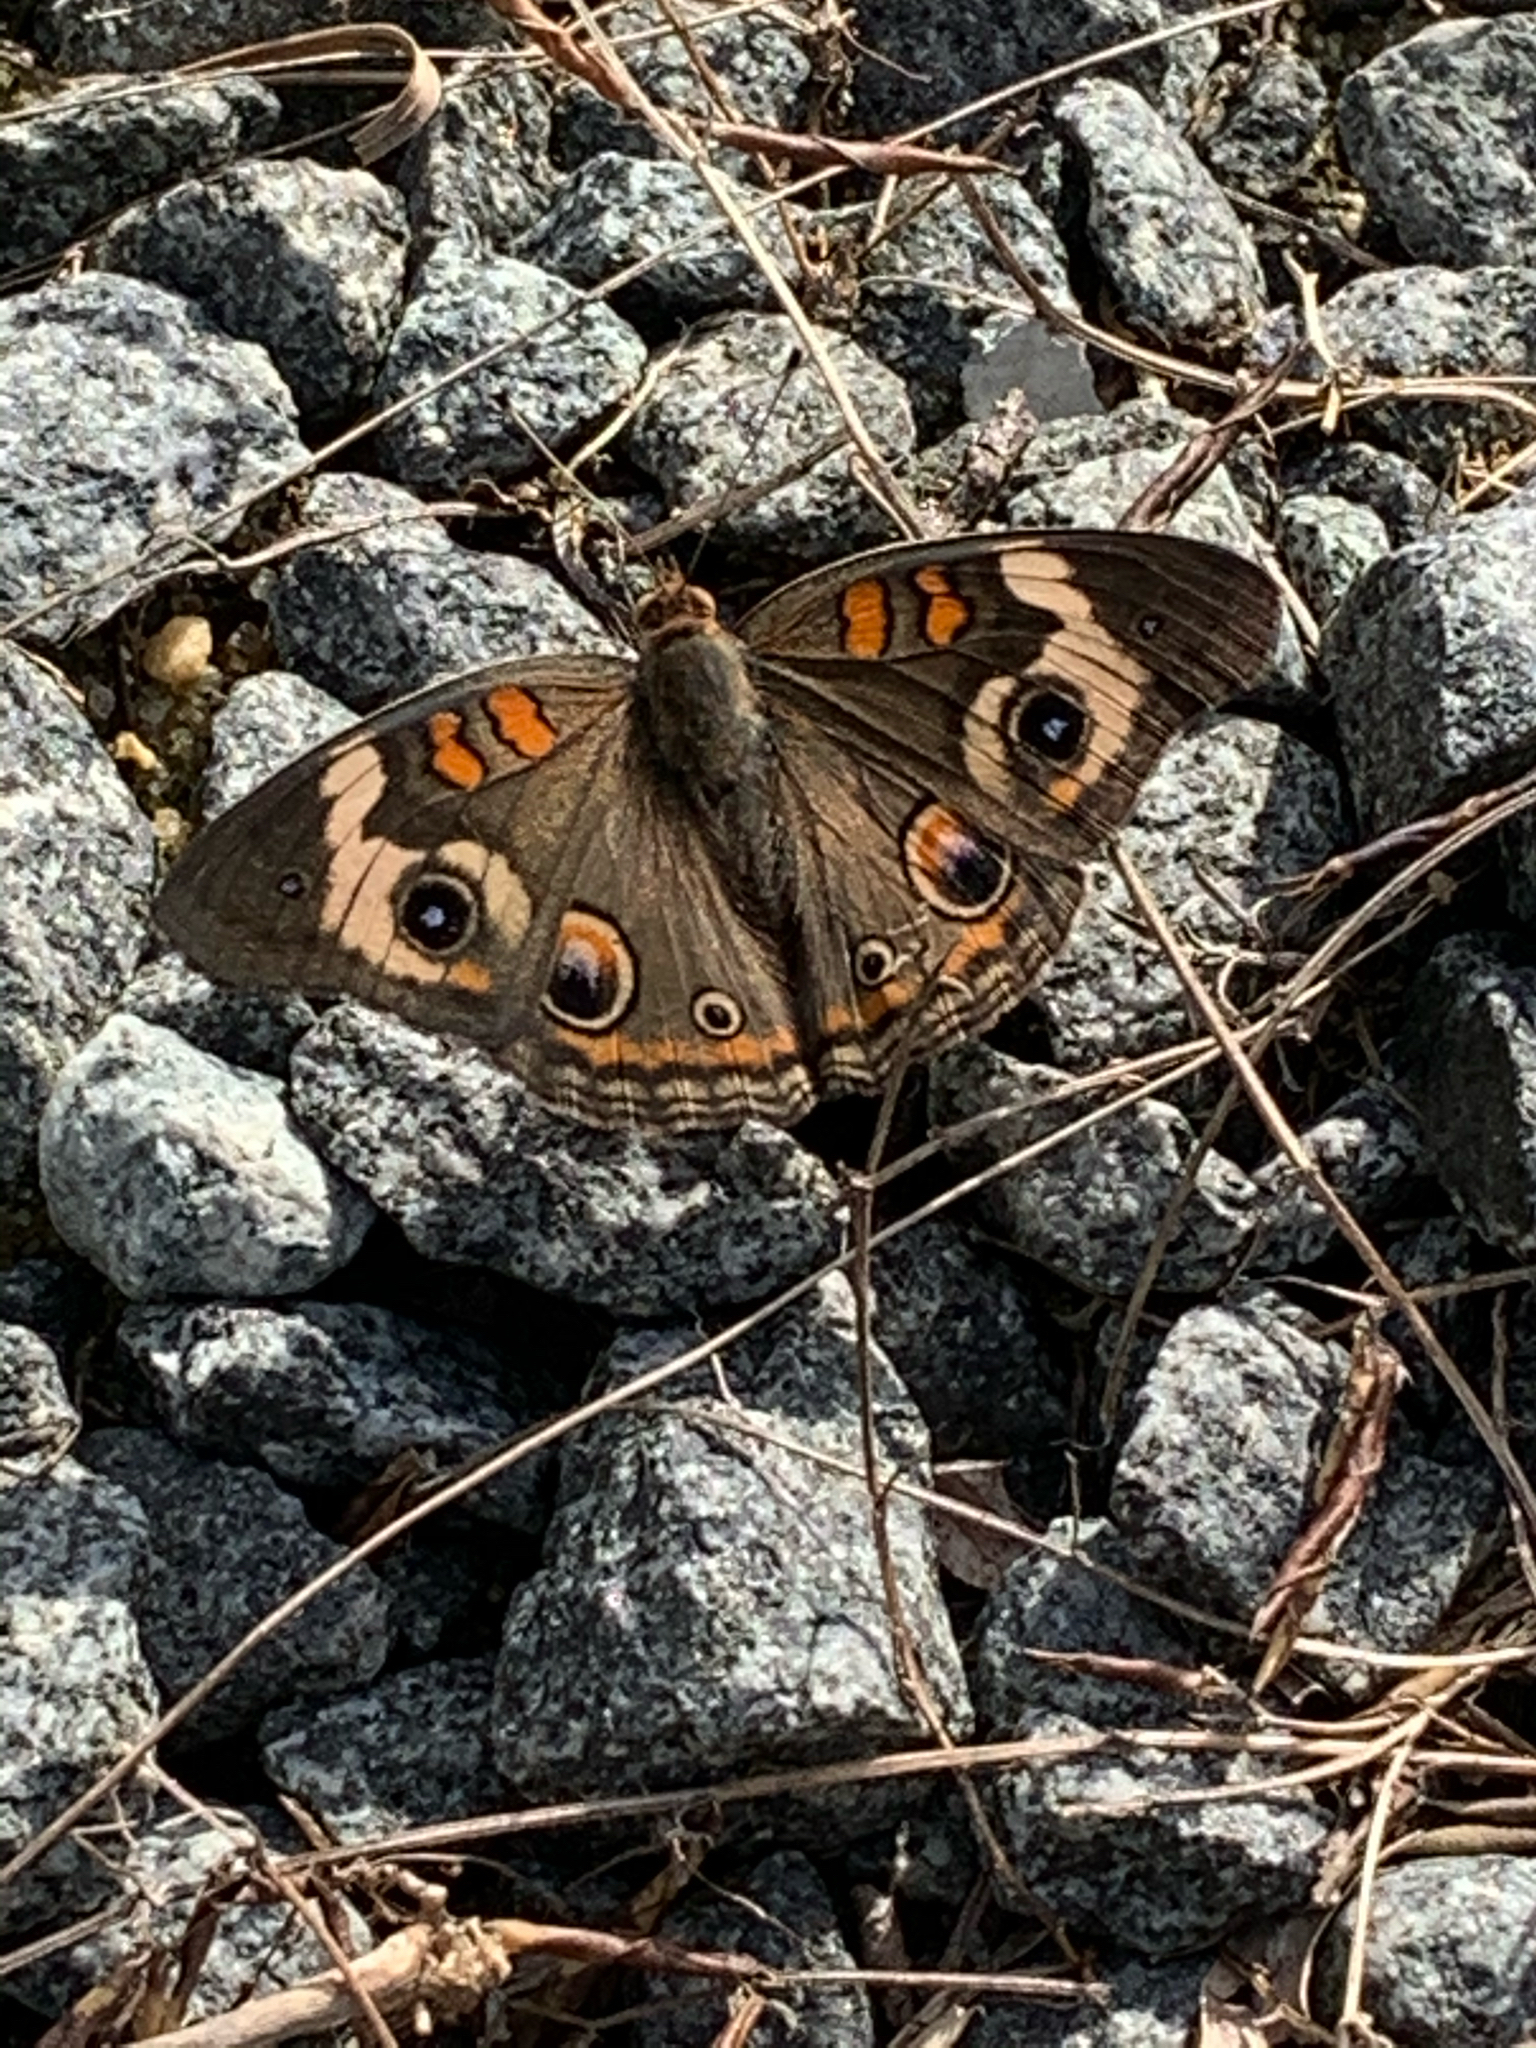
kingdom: Animalia
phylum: Arthropoda
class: Insecta
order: Lepidoptera
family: Nymphalidae
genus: Junonia
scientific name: Junonia coenia
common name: Common buckeye
